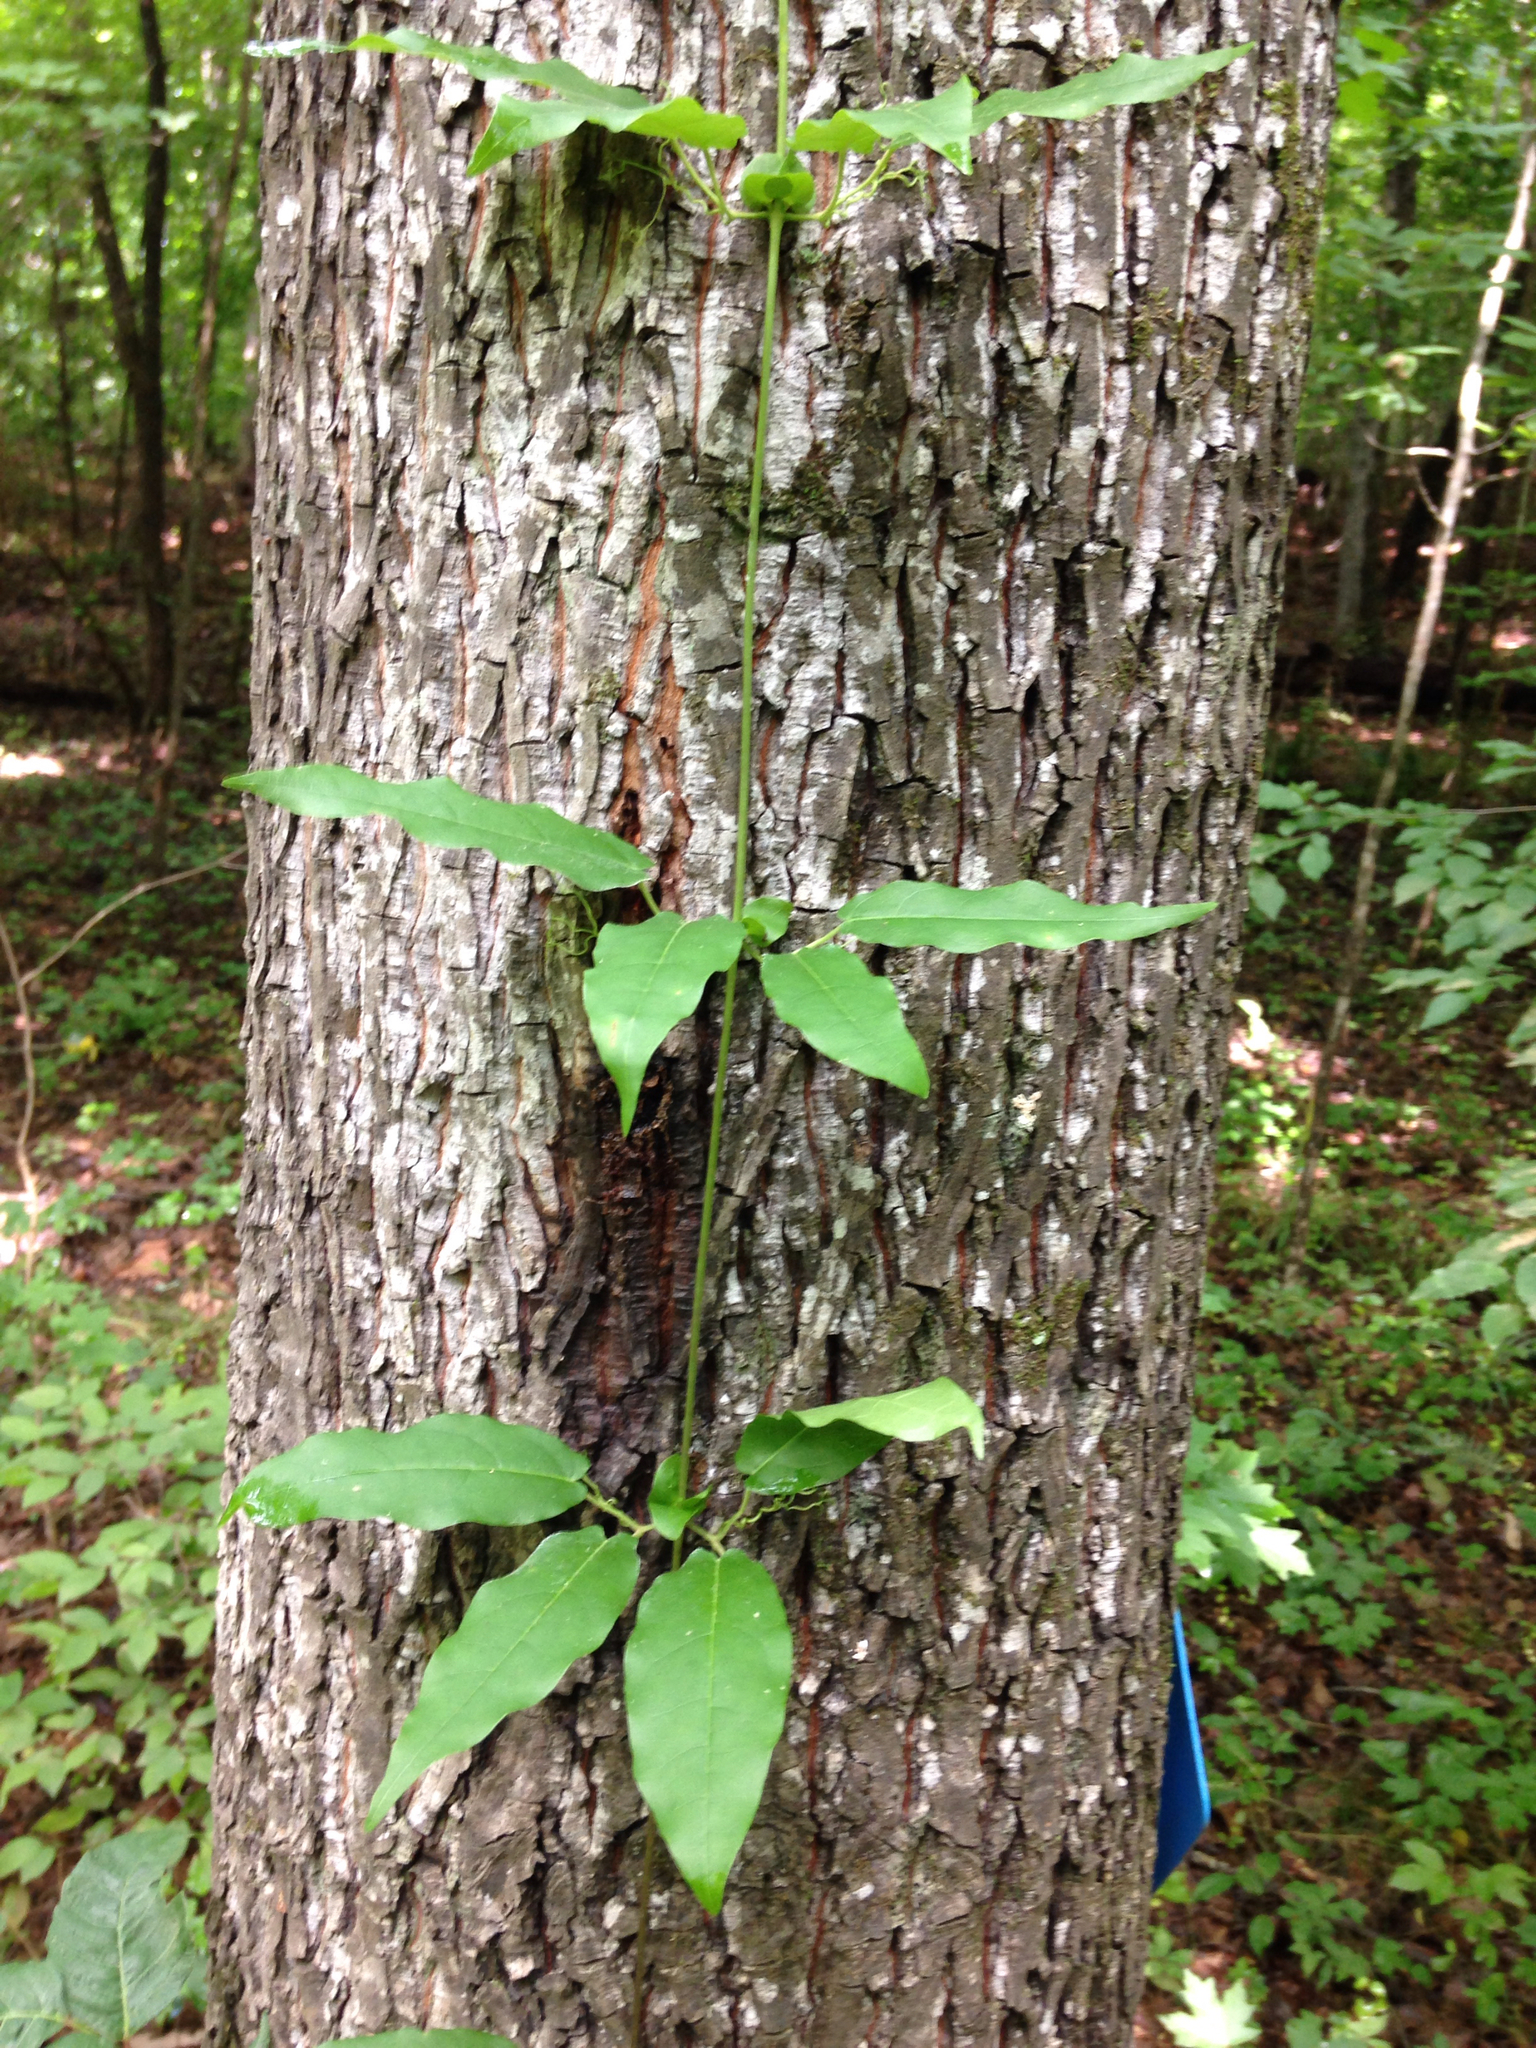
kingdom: Plantae
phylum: Tracheophyta
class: Magnoliopsida
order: Lamiales
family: Bignoniaceae
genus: Bignonia
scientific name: Bignonia capreolata
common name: Crossvine
